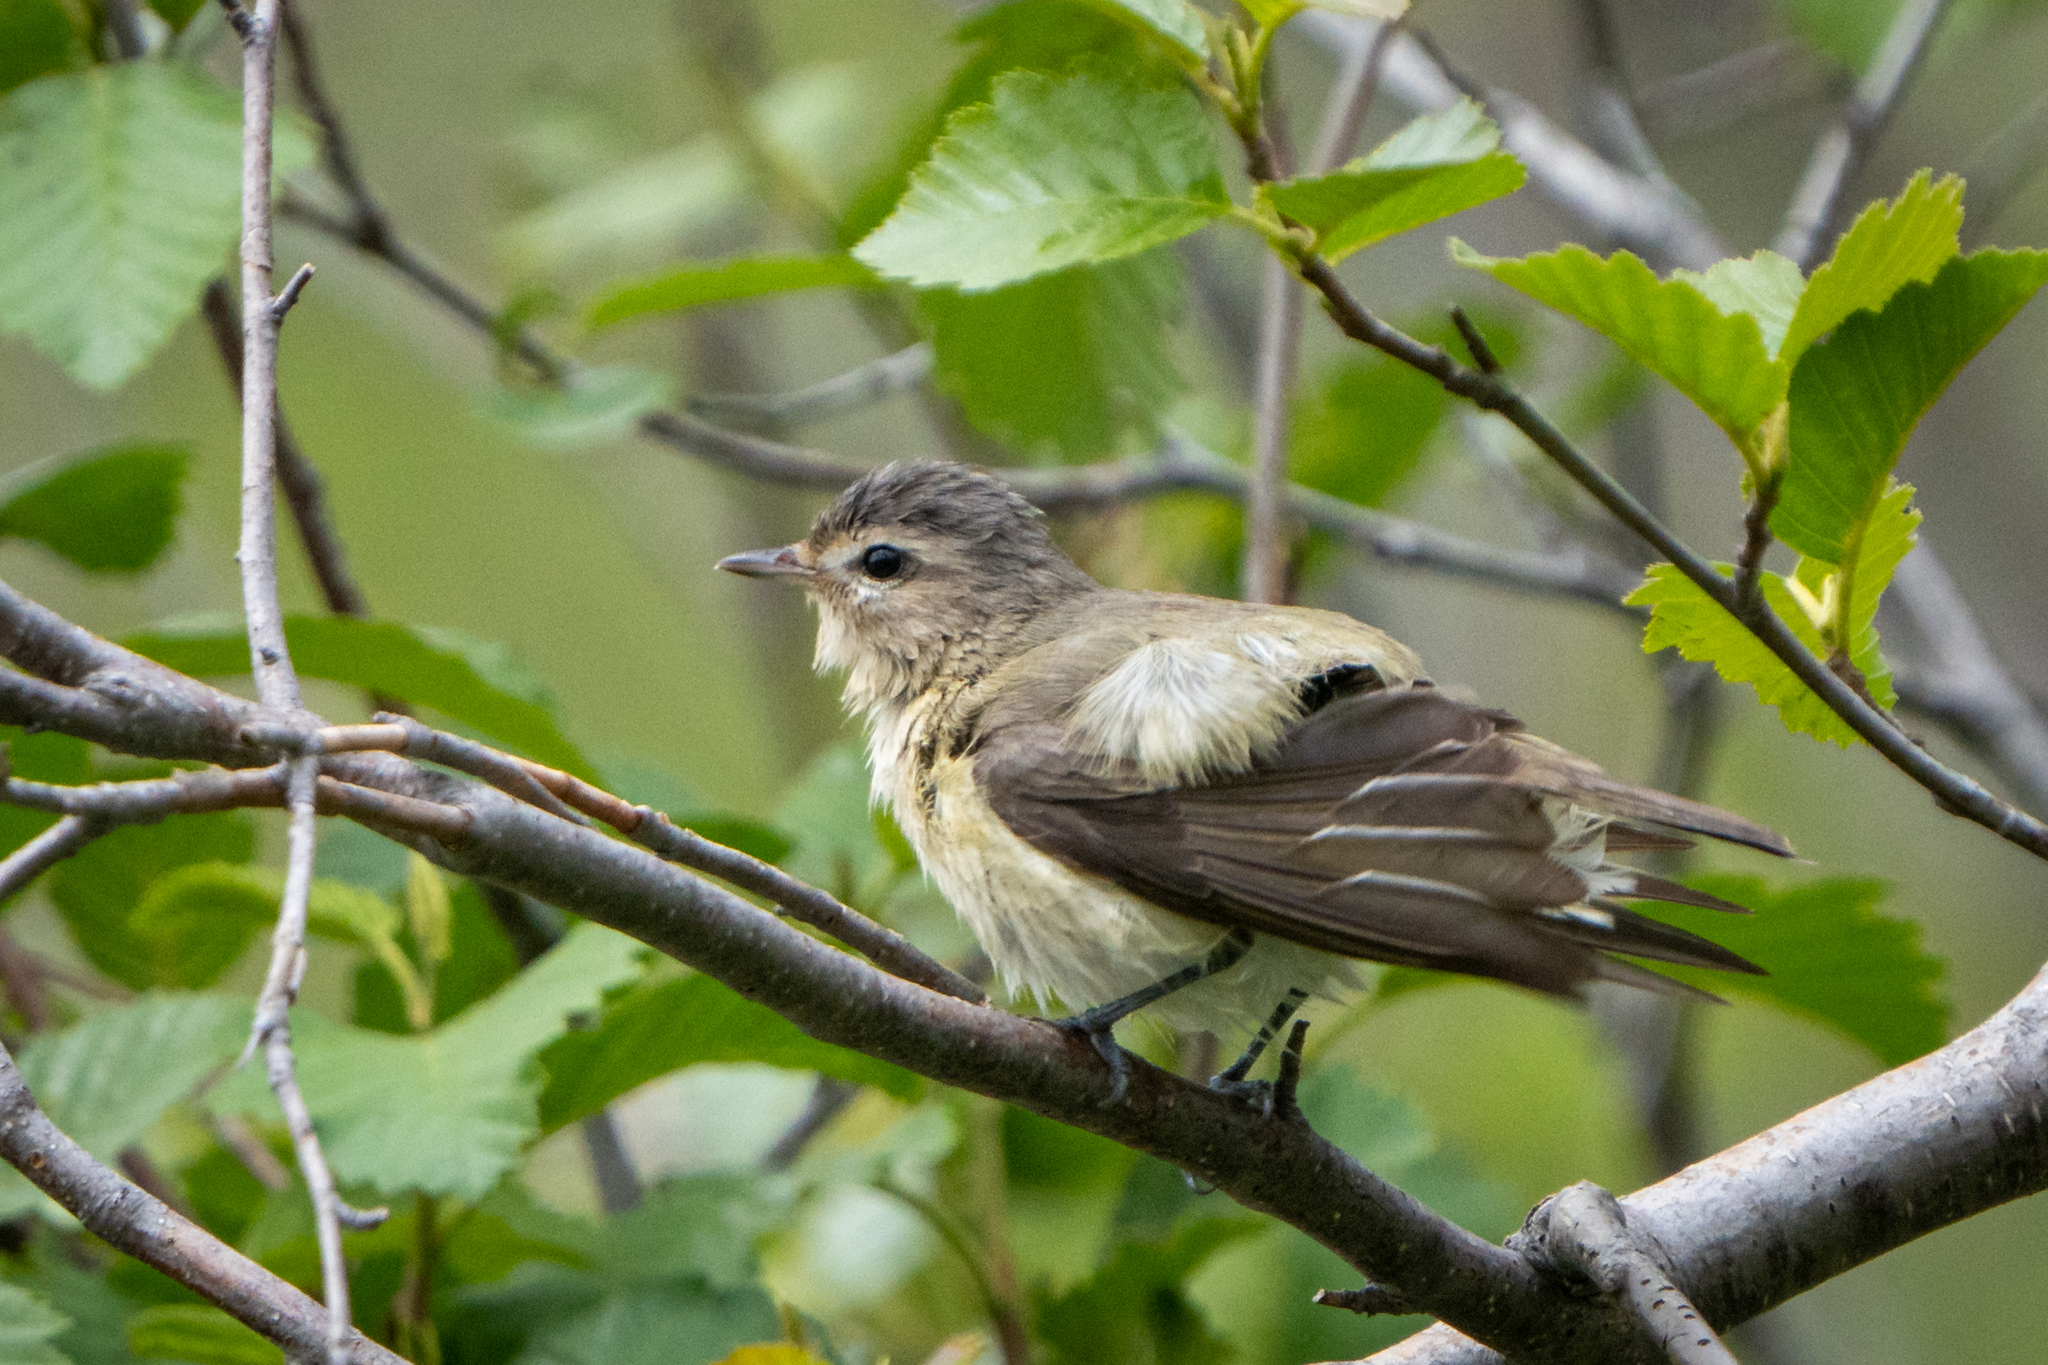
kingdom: Animalia
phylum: Chordata
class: Aves
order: Passeriformes
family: Vireonidae
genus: Vireo
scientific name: Vireo gilvus
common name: Warbling vireo
